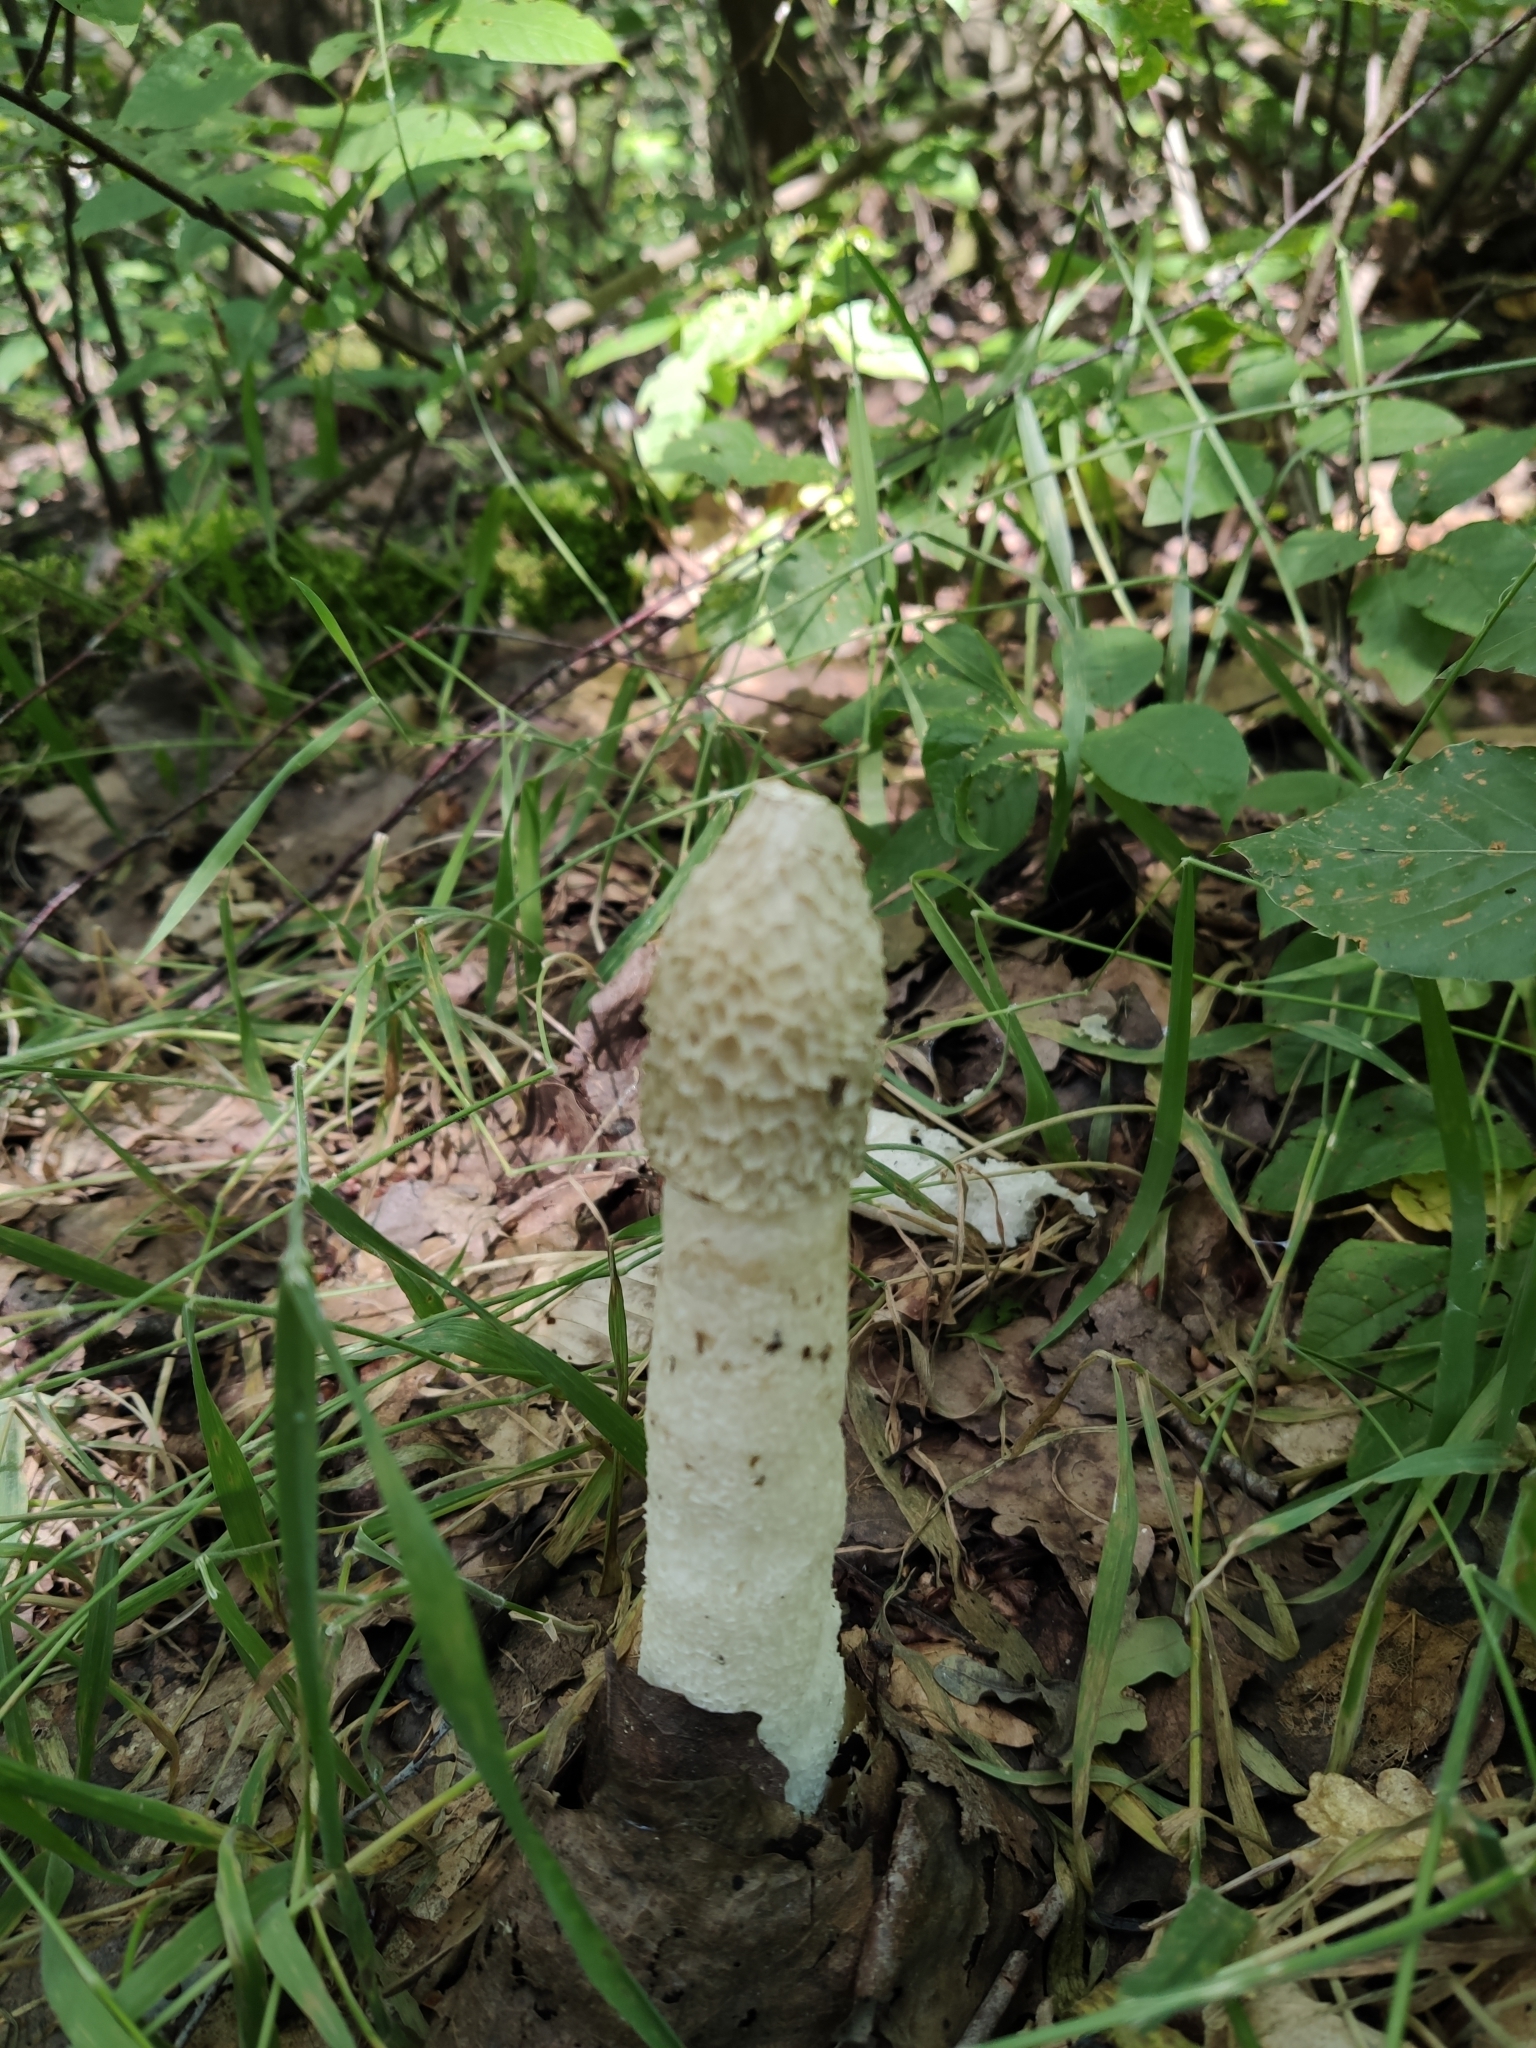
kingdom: Fungi
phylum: Basidiomycota
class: Agaricomycetes
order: Phallales
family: Phallaceae
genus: Phallus
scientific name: Phallus impudicus
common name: Common stinkhorn
